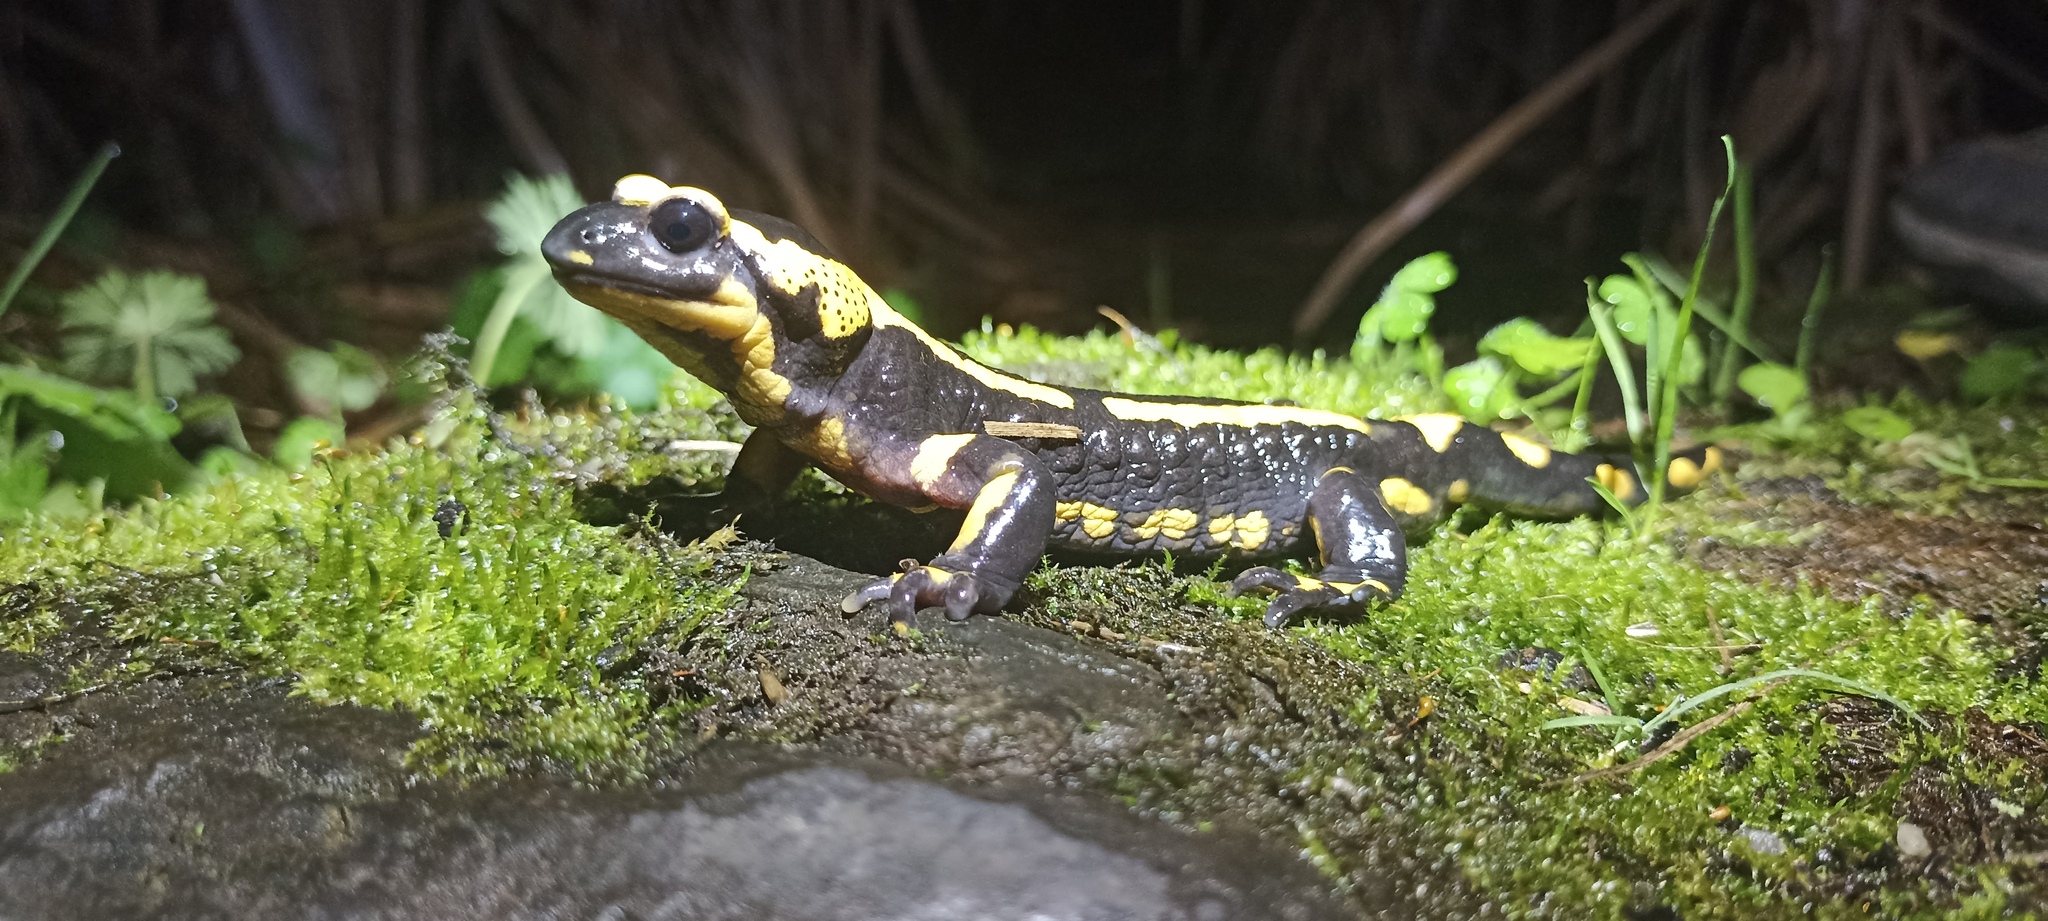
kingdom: Animalia
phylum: Chordata
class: Amphibia
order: Caudata
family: Salamandridae
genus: Salamandra
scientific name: Salamandra salamandra
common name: Fire salamander
